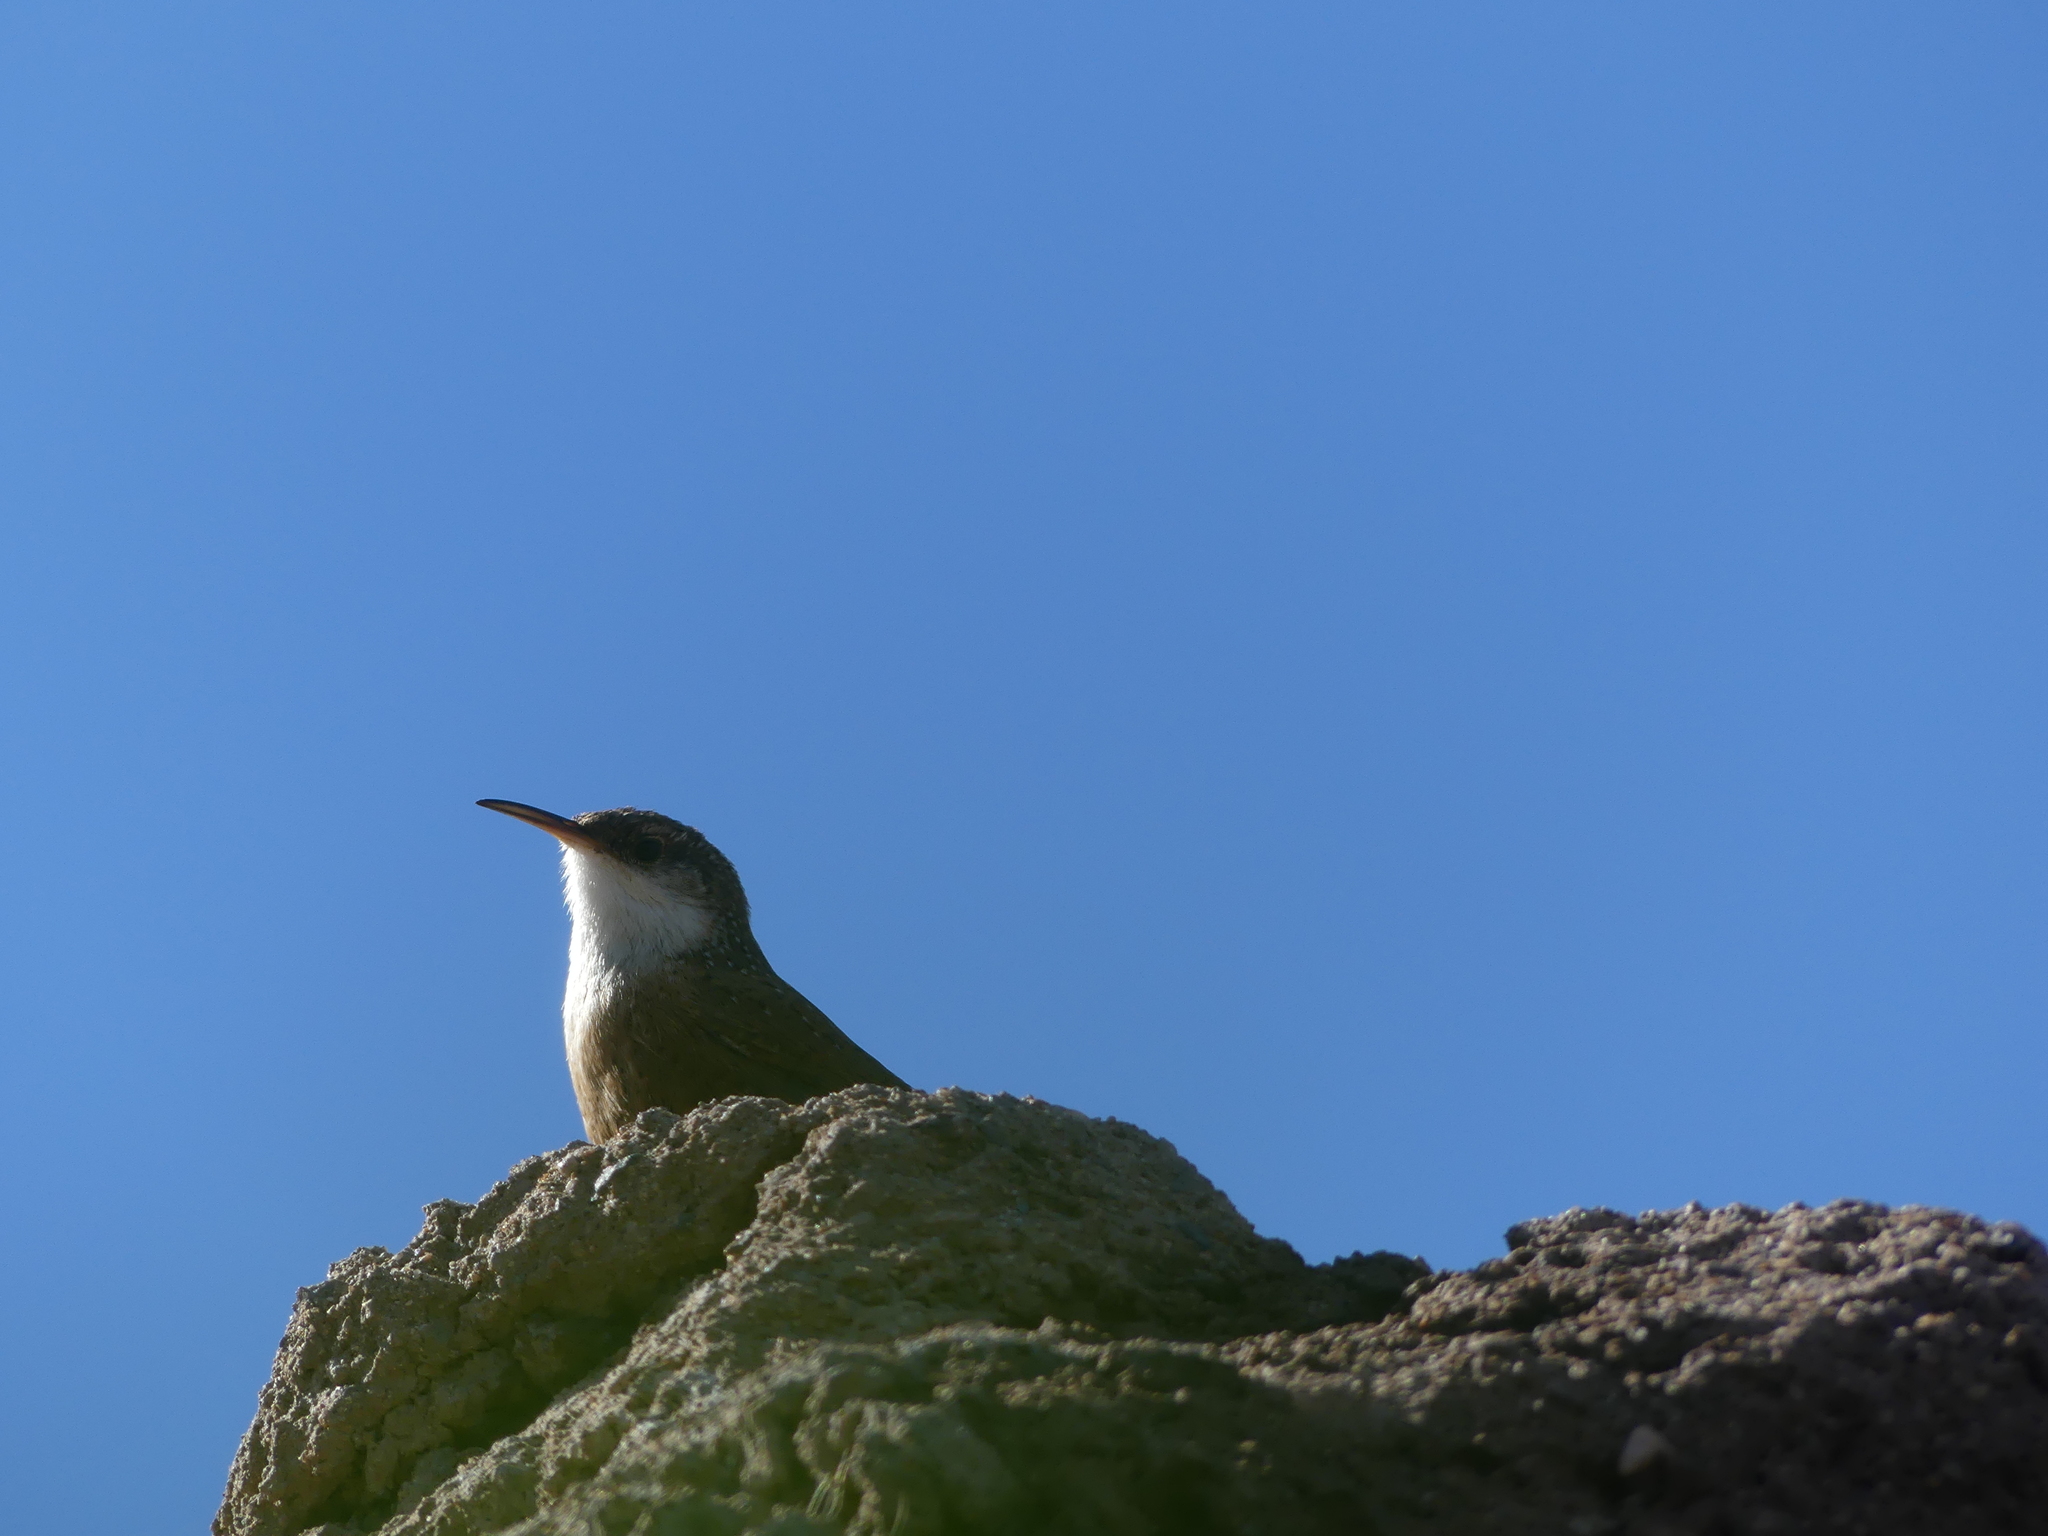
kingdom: Animalia
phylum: Chordata
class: Aves
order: Passeriformes
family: Troglodytidae
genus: Catherpes
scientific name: Catherpes mexicanus
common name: Canyon wren
